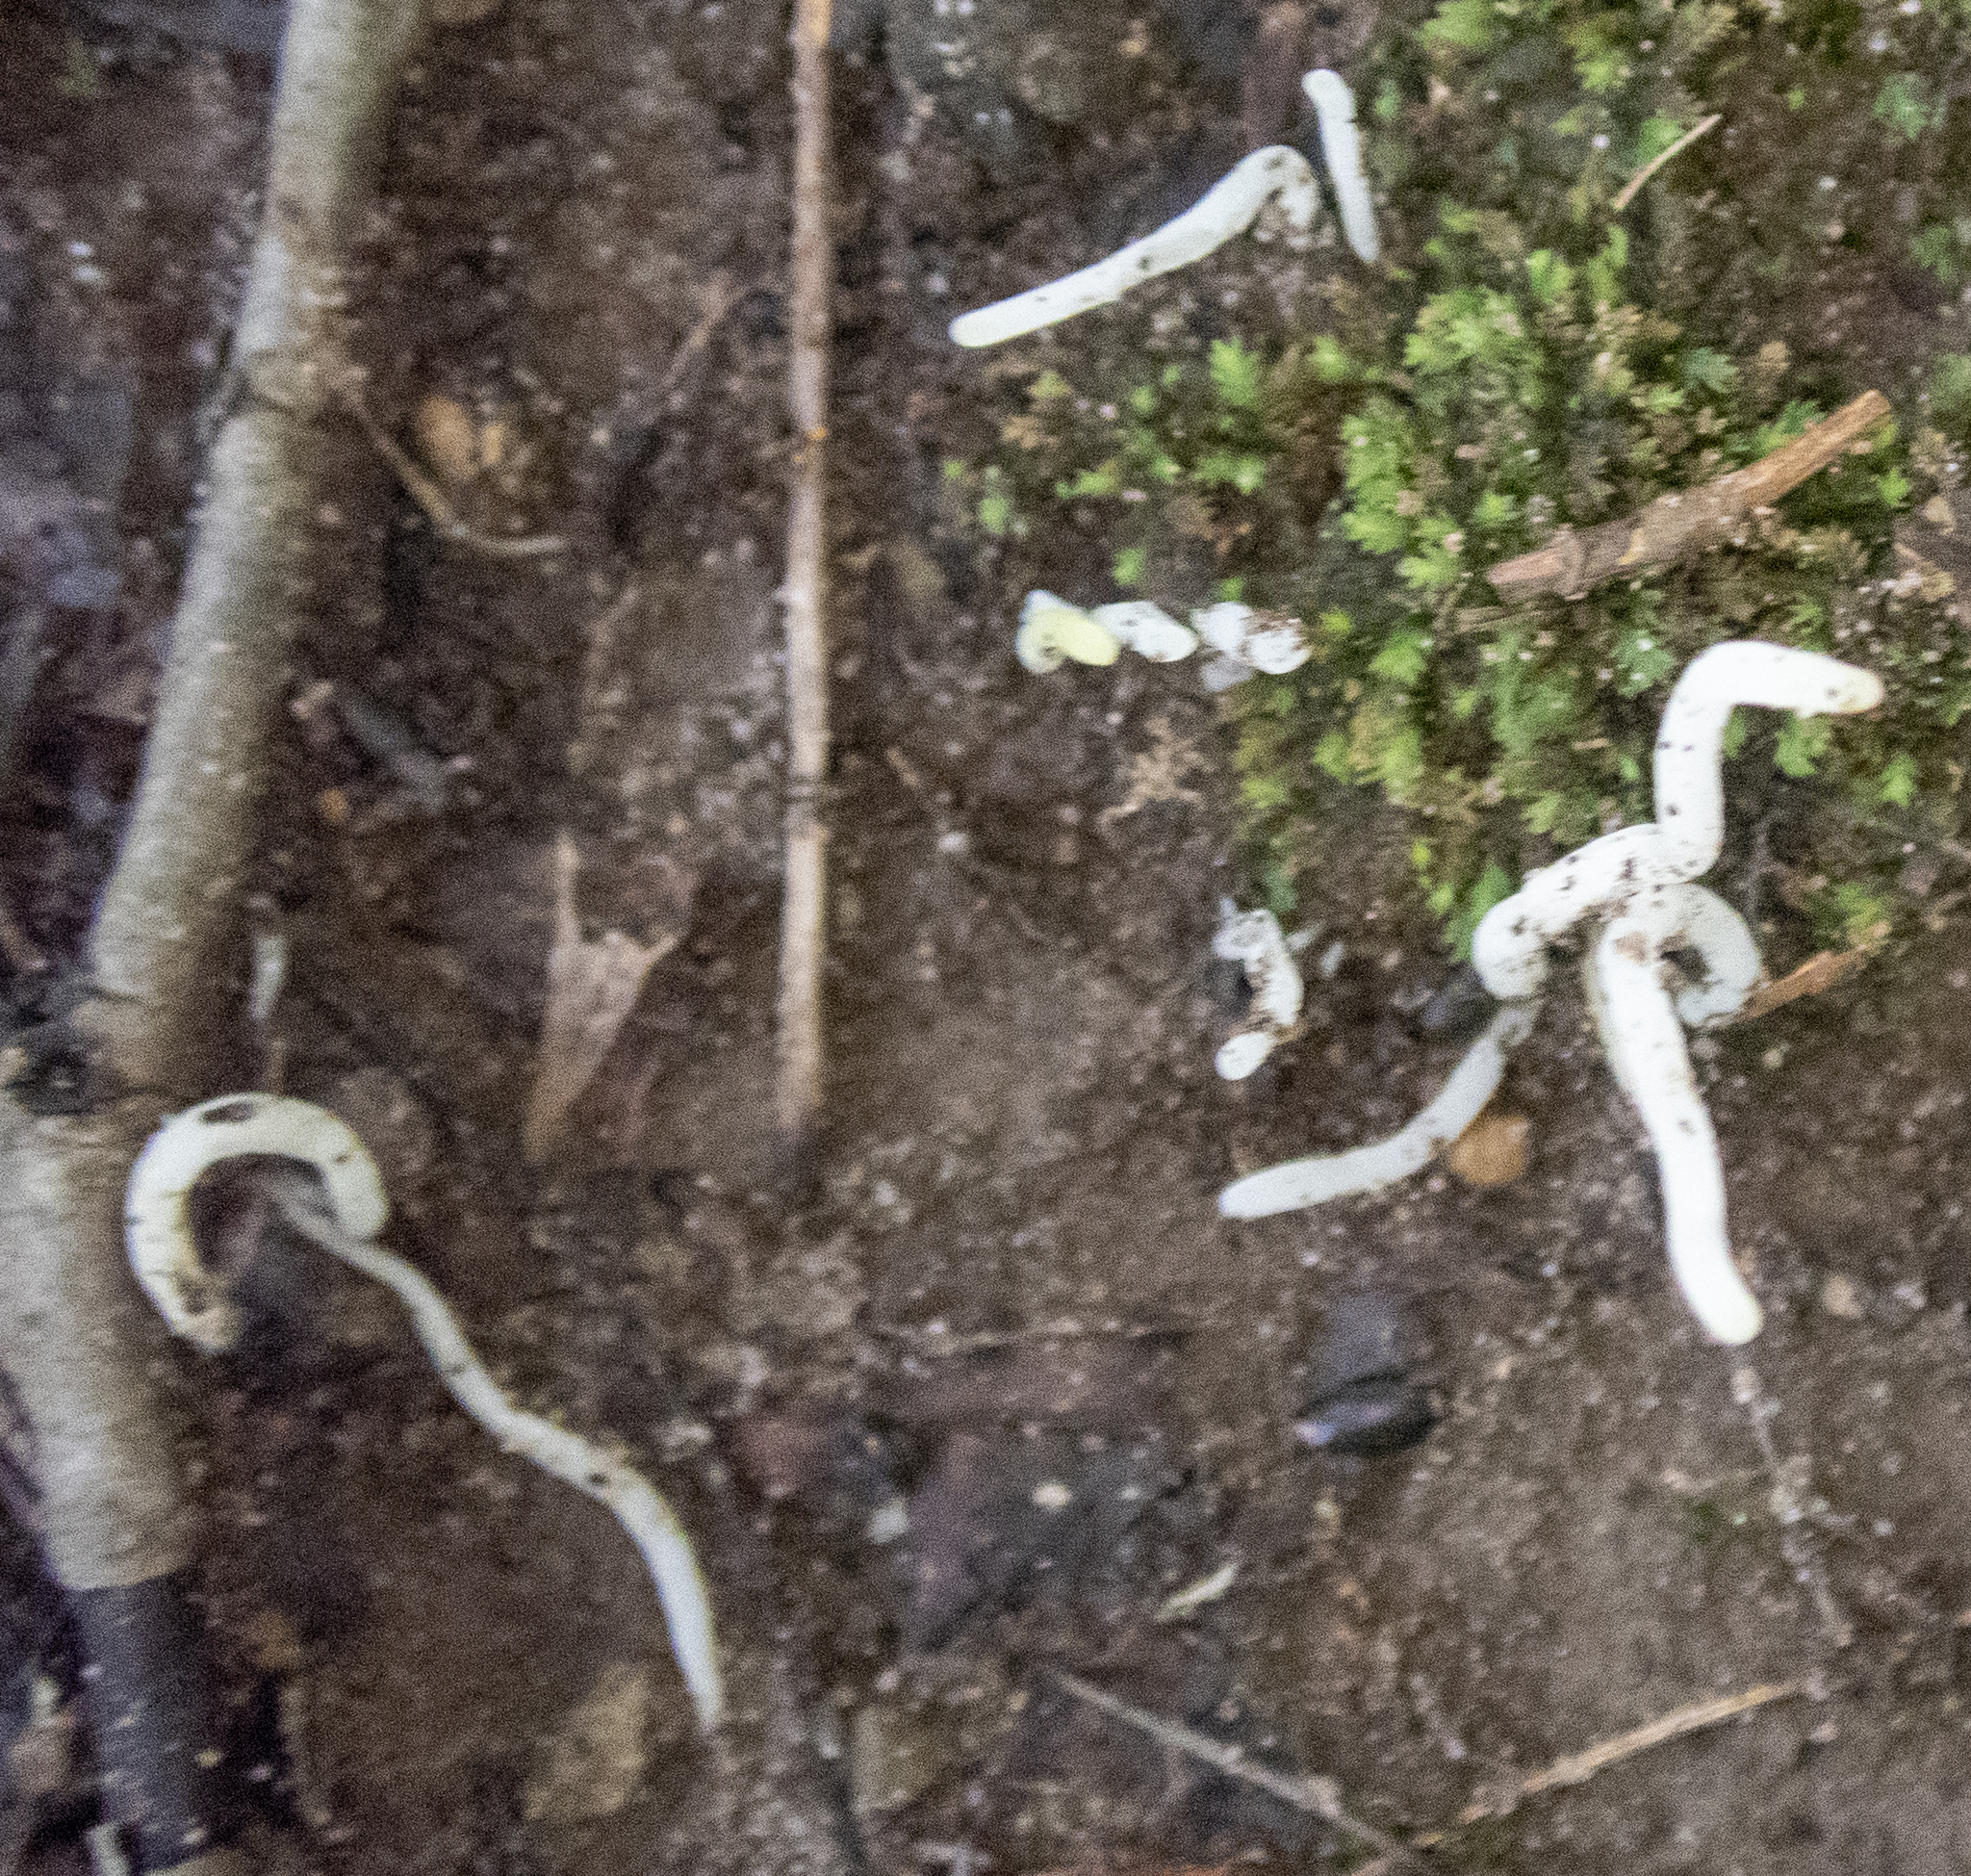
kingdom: Fungi
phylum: Basidiomycota
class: Agaricomycetes
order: Agaricales
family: Clavariaceae
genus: Clavaria
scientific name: Clavaria fragilis
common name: White spindles
